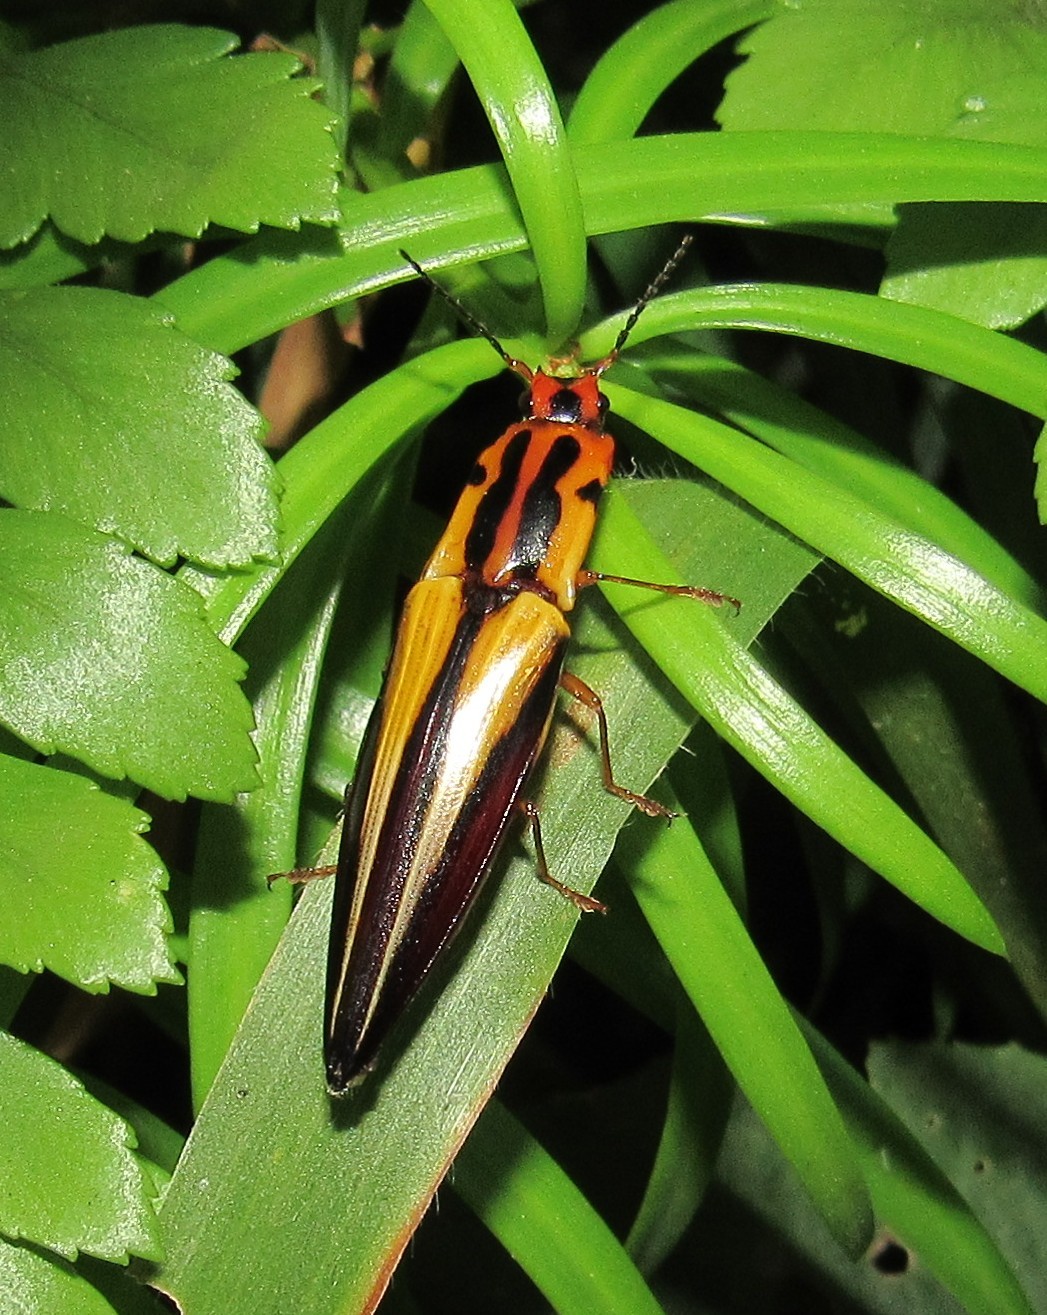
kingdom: Animalia
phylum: Arthropoda
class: Insecta
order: Coleoptera
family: Elateridae
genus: Semiotus
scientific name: Semiotus intermedius
